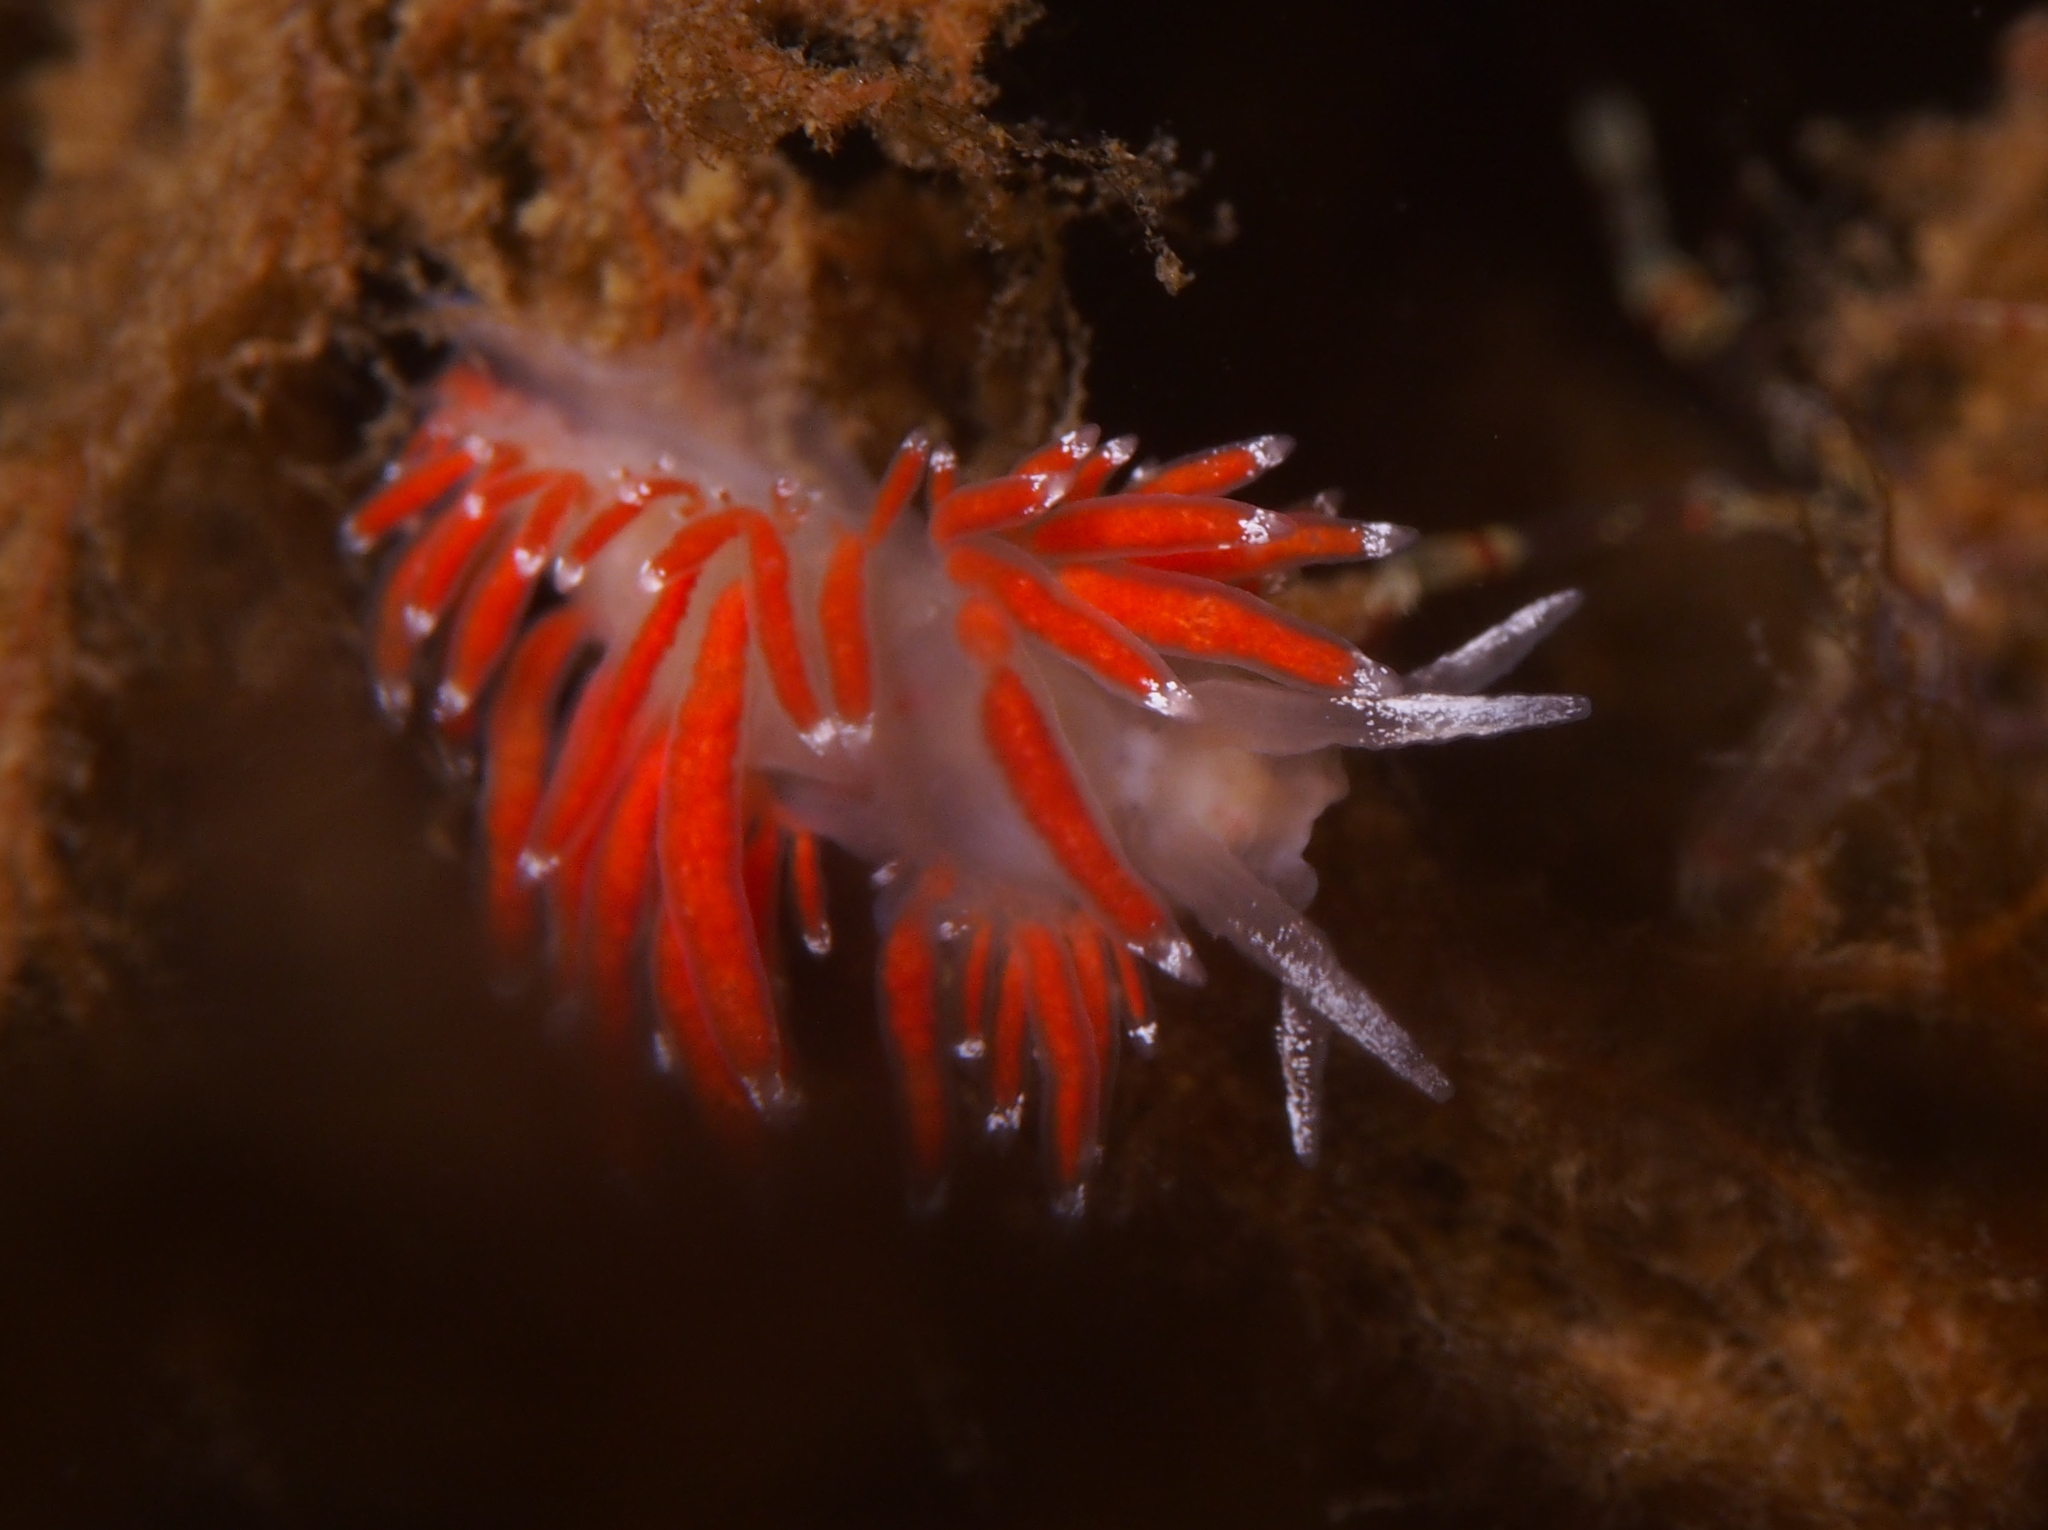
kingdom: Animalia
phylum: Mollusca
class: Gastropoda
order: Nudibranchia
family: Coryphellidae
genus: Coryphella
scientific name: Coryphella gracilis
